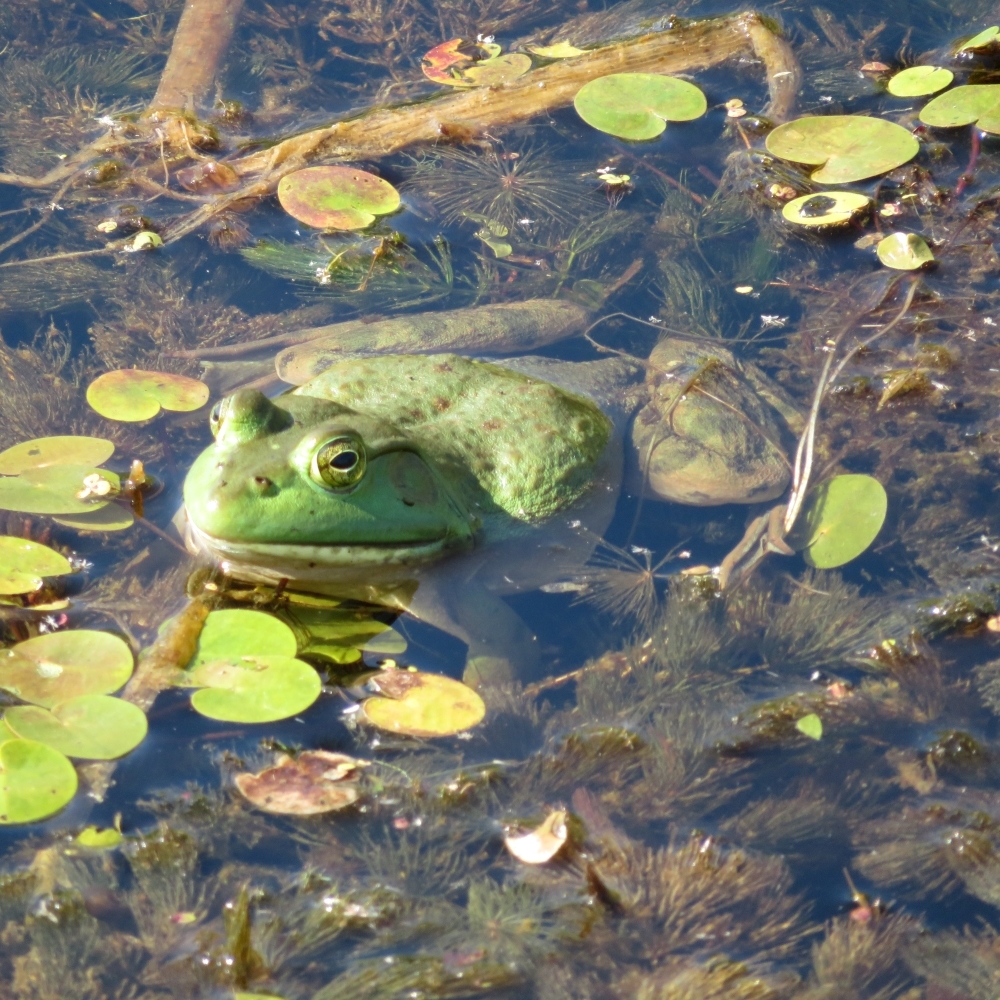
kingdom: Animalia
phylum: Chordata
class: Amphibia
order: Anura
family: Ranidae
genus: Lithobates
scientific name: Lithobates catesbeianus
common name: American bullfrog
